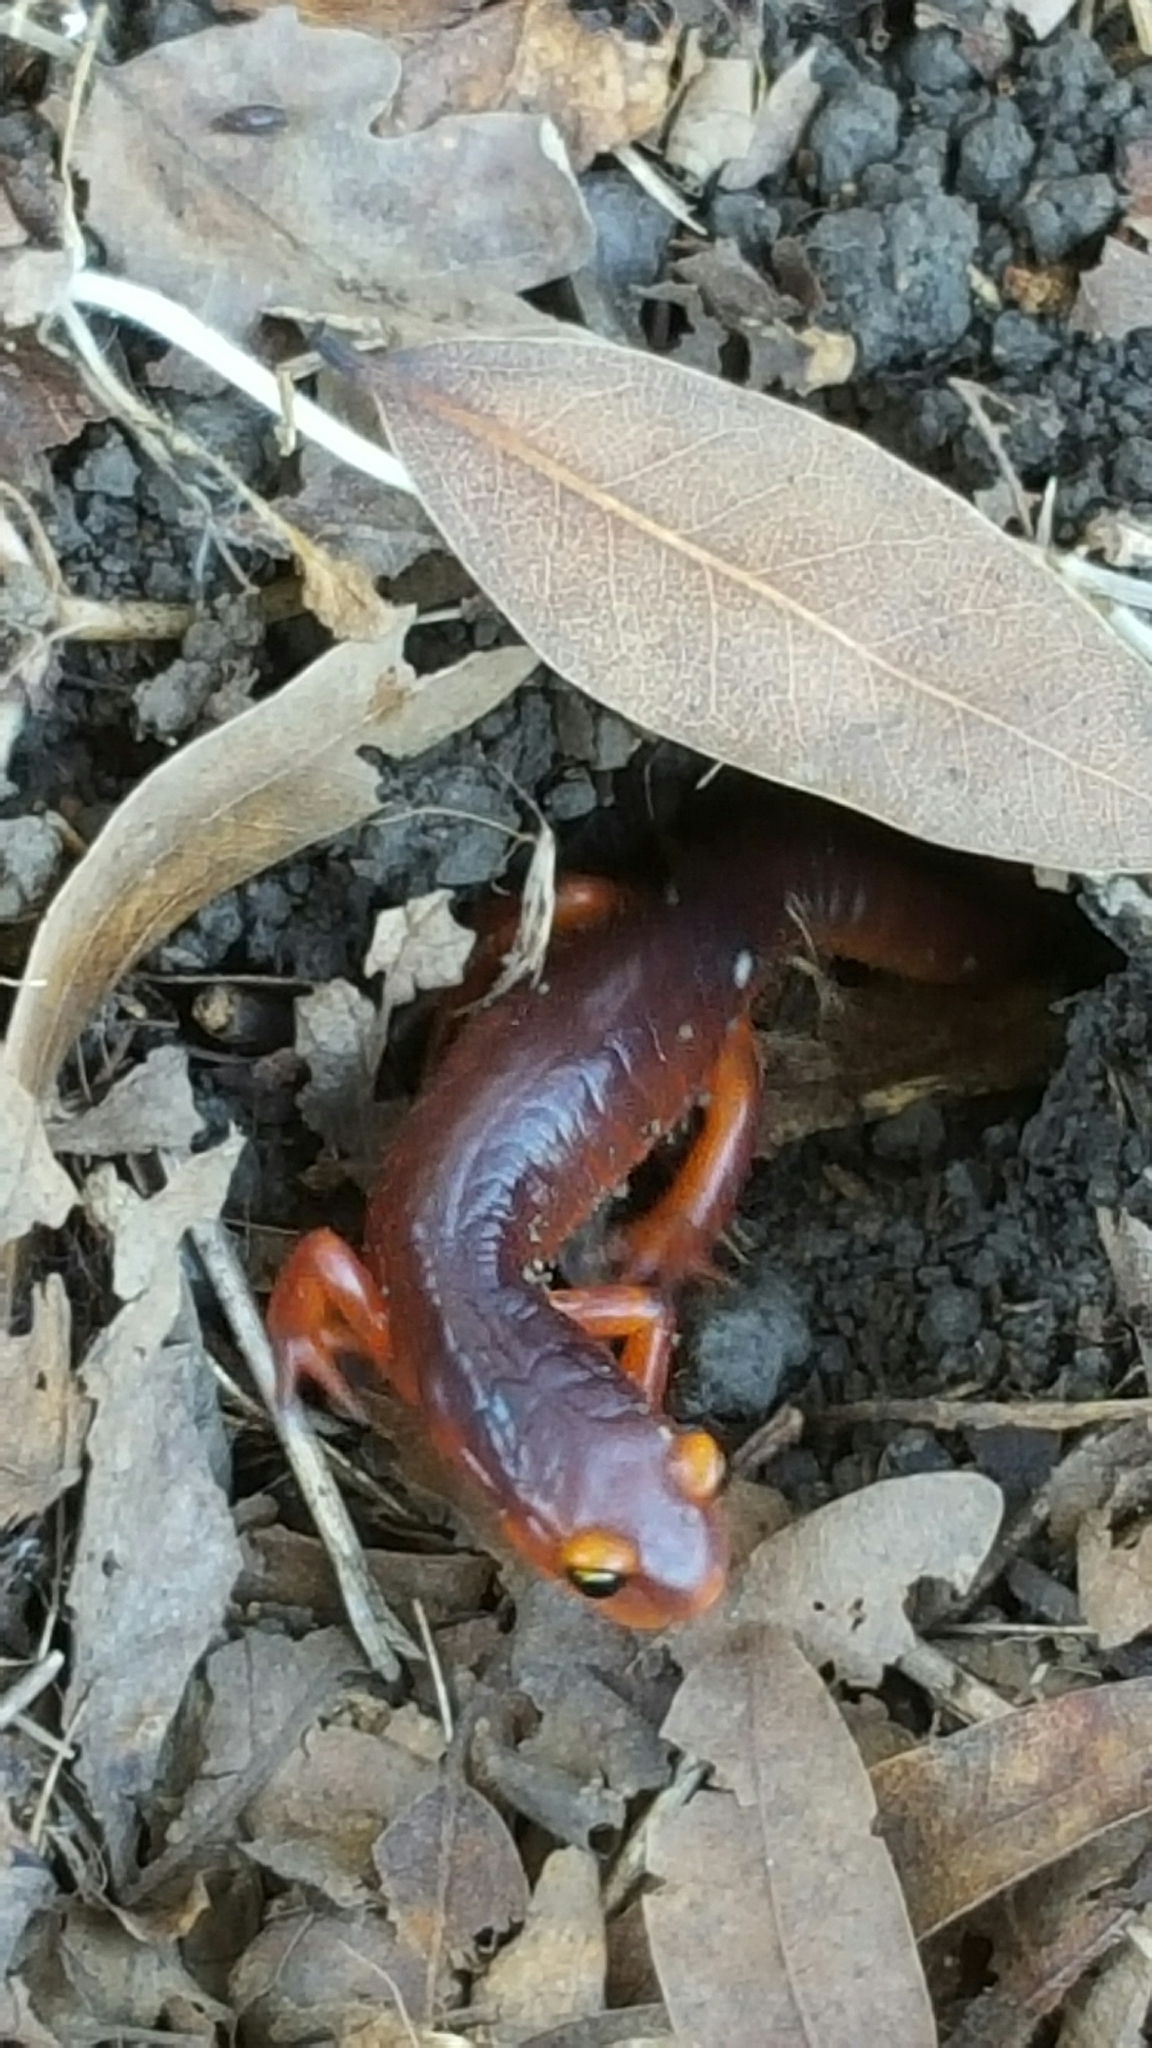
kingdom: Animalia
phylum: Chordata
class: Amphibia
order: Caudata
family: Plethodontidae
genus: Ensatina
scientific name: Ensatina eschscholtzii
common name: Ensatina
